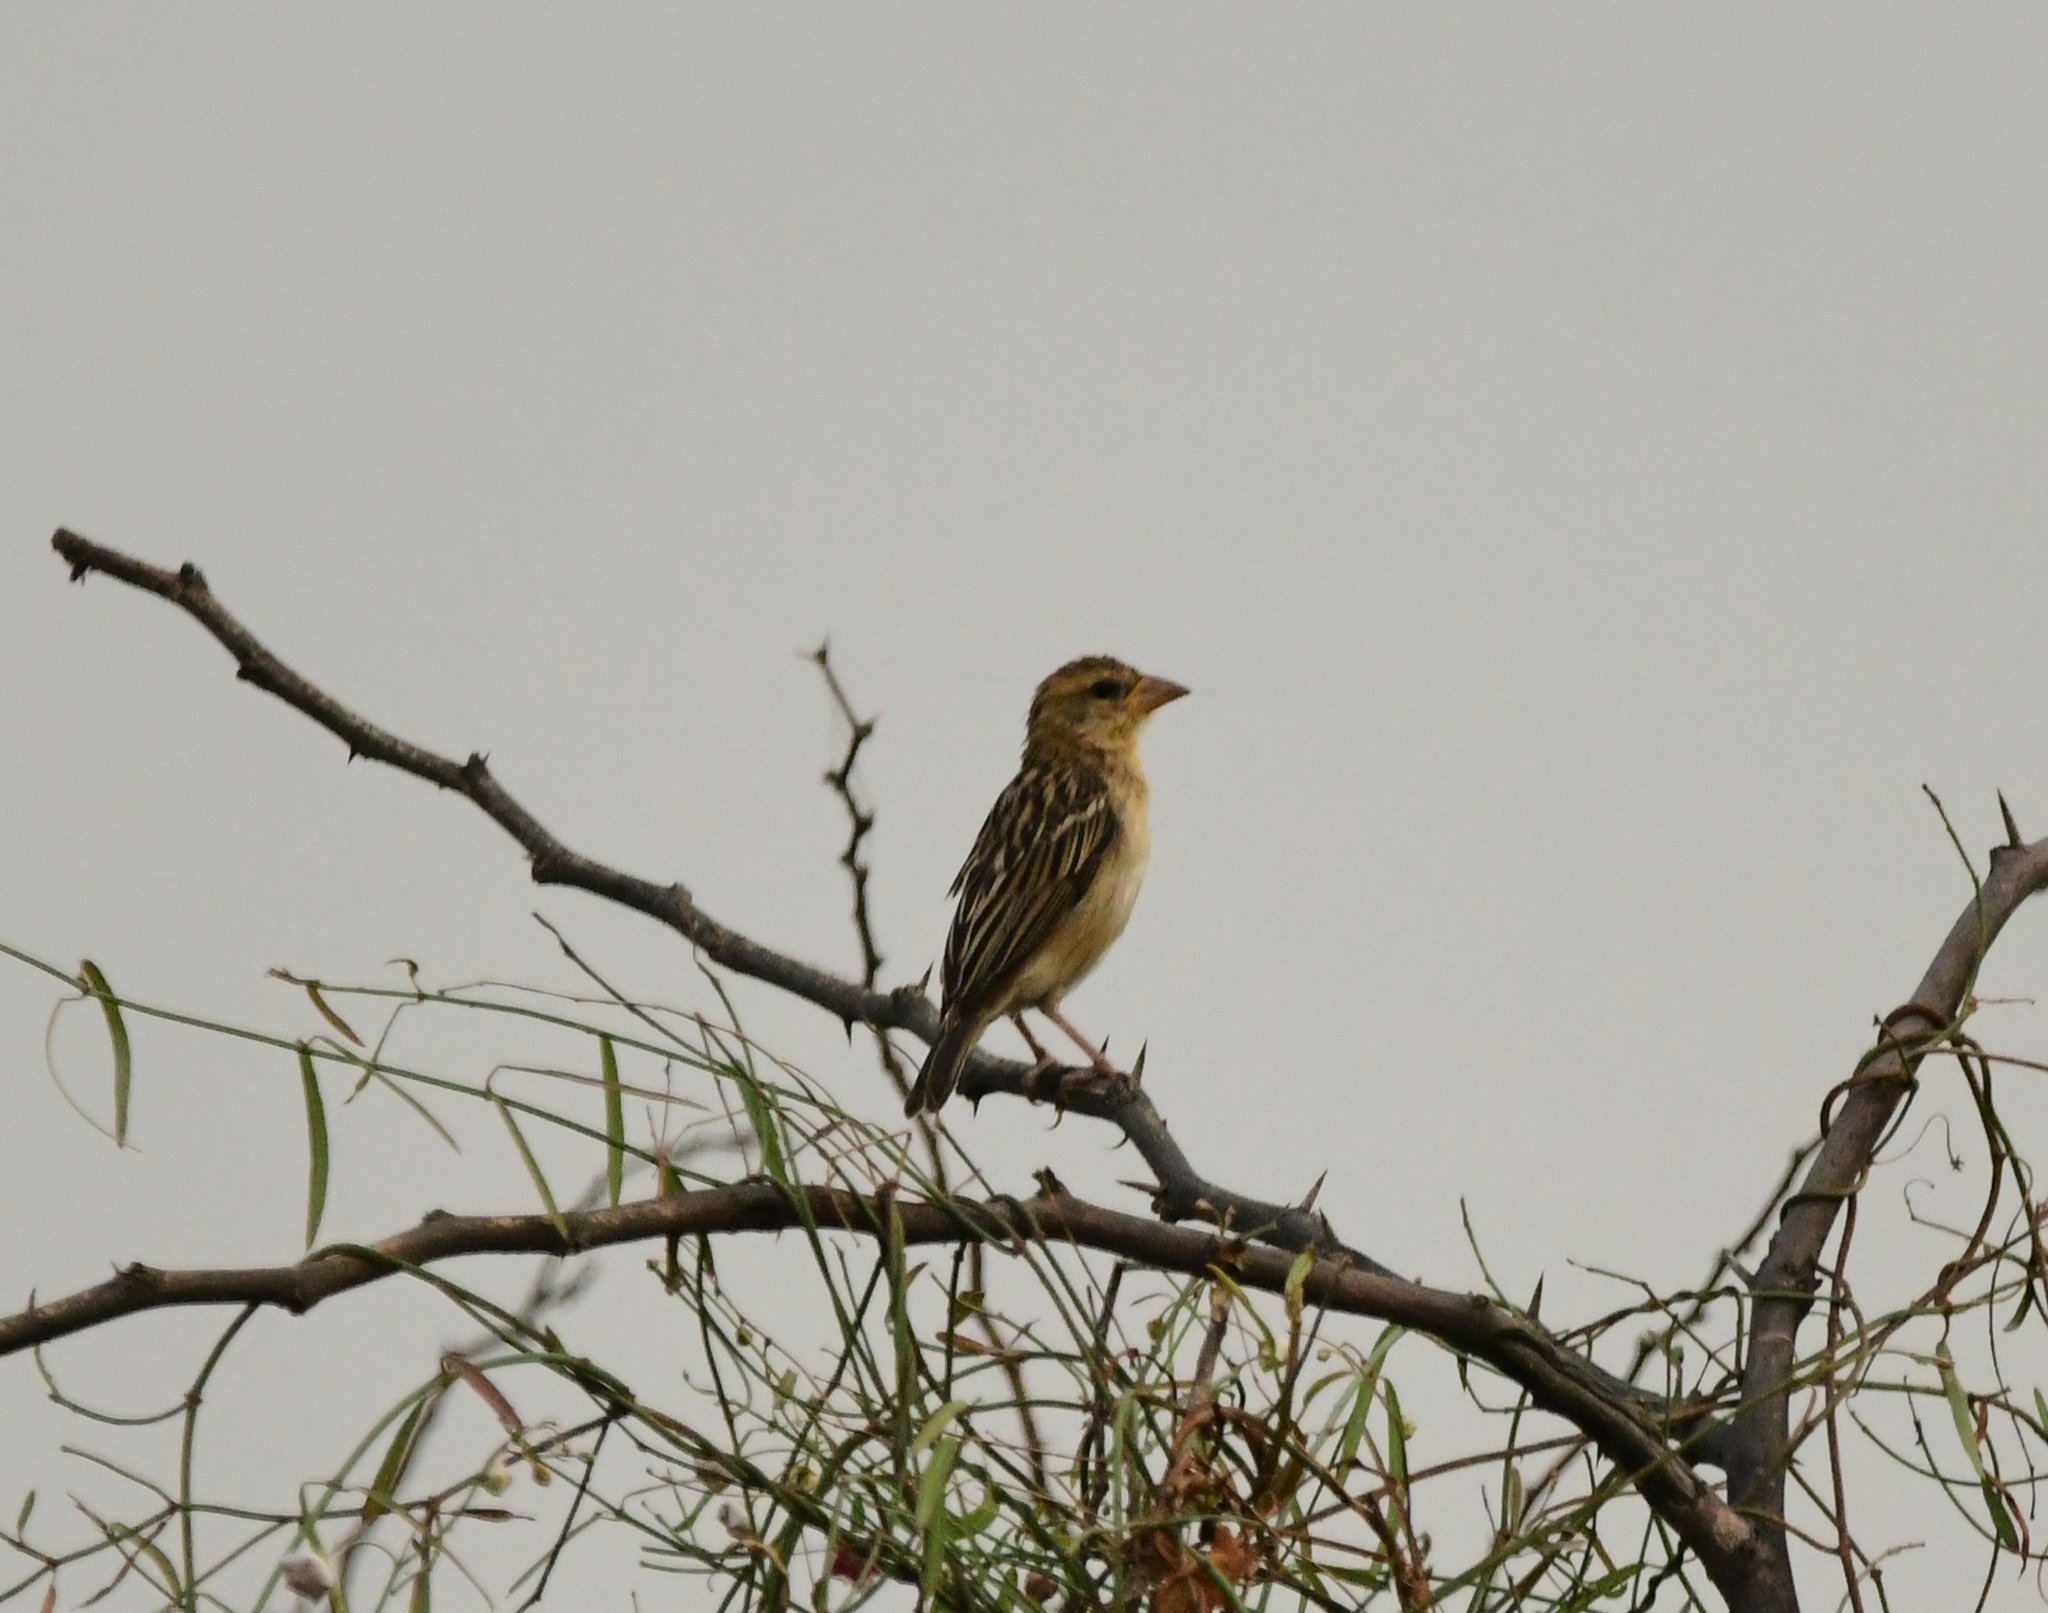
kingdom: Animalia
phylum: Chordata
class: Aves
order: Passeriformes
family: Ploceidae
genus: Ploceus
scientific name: Ploceus philippinus
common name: Baya weaver
